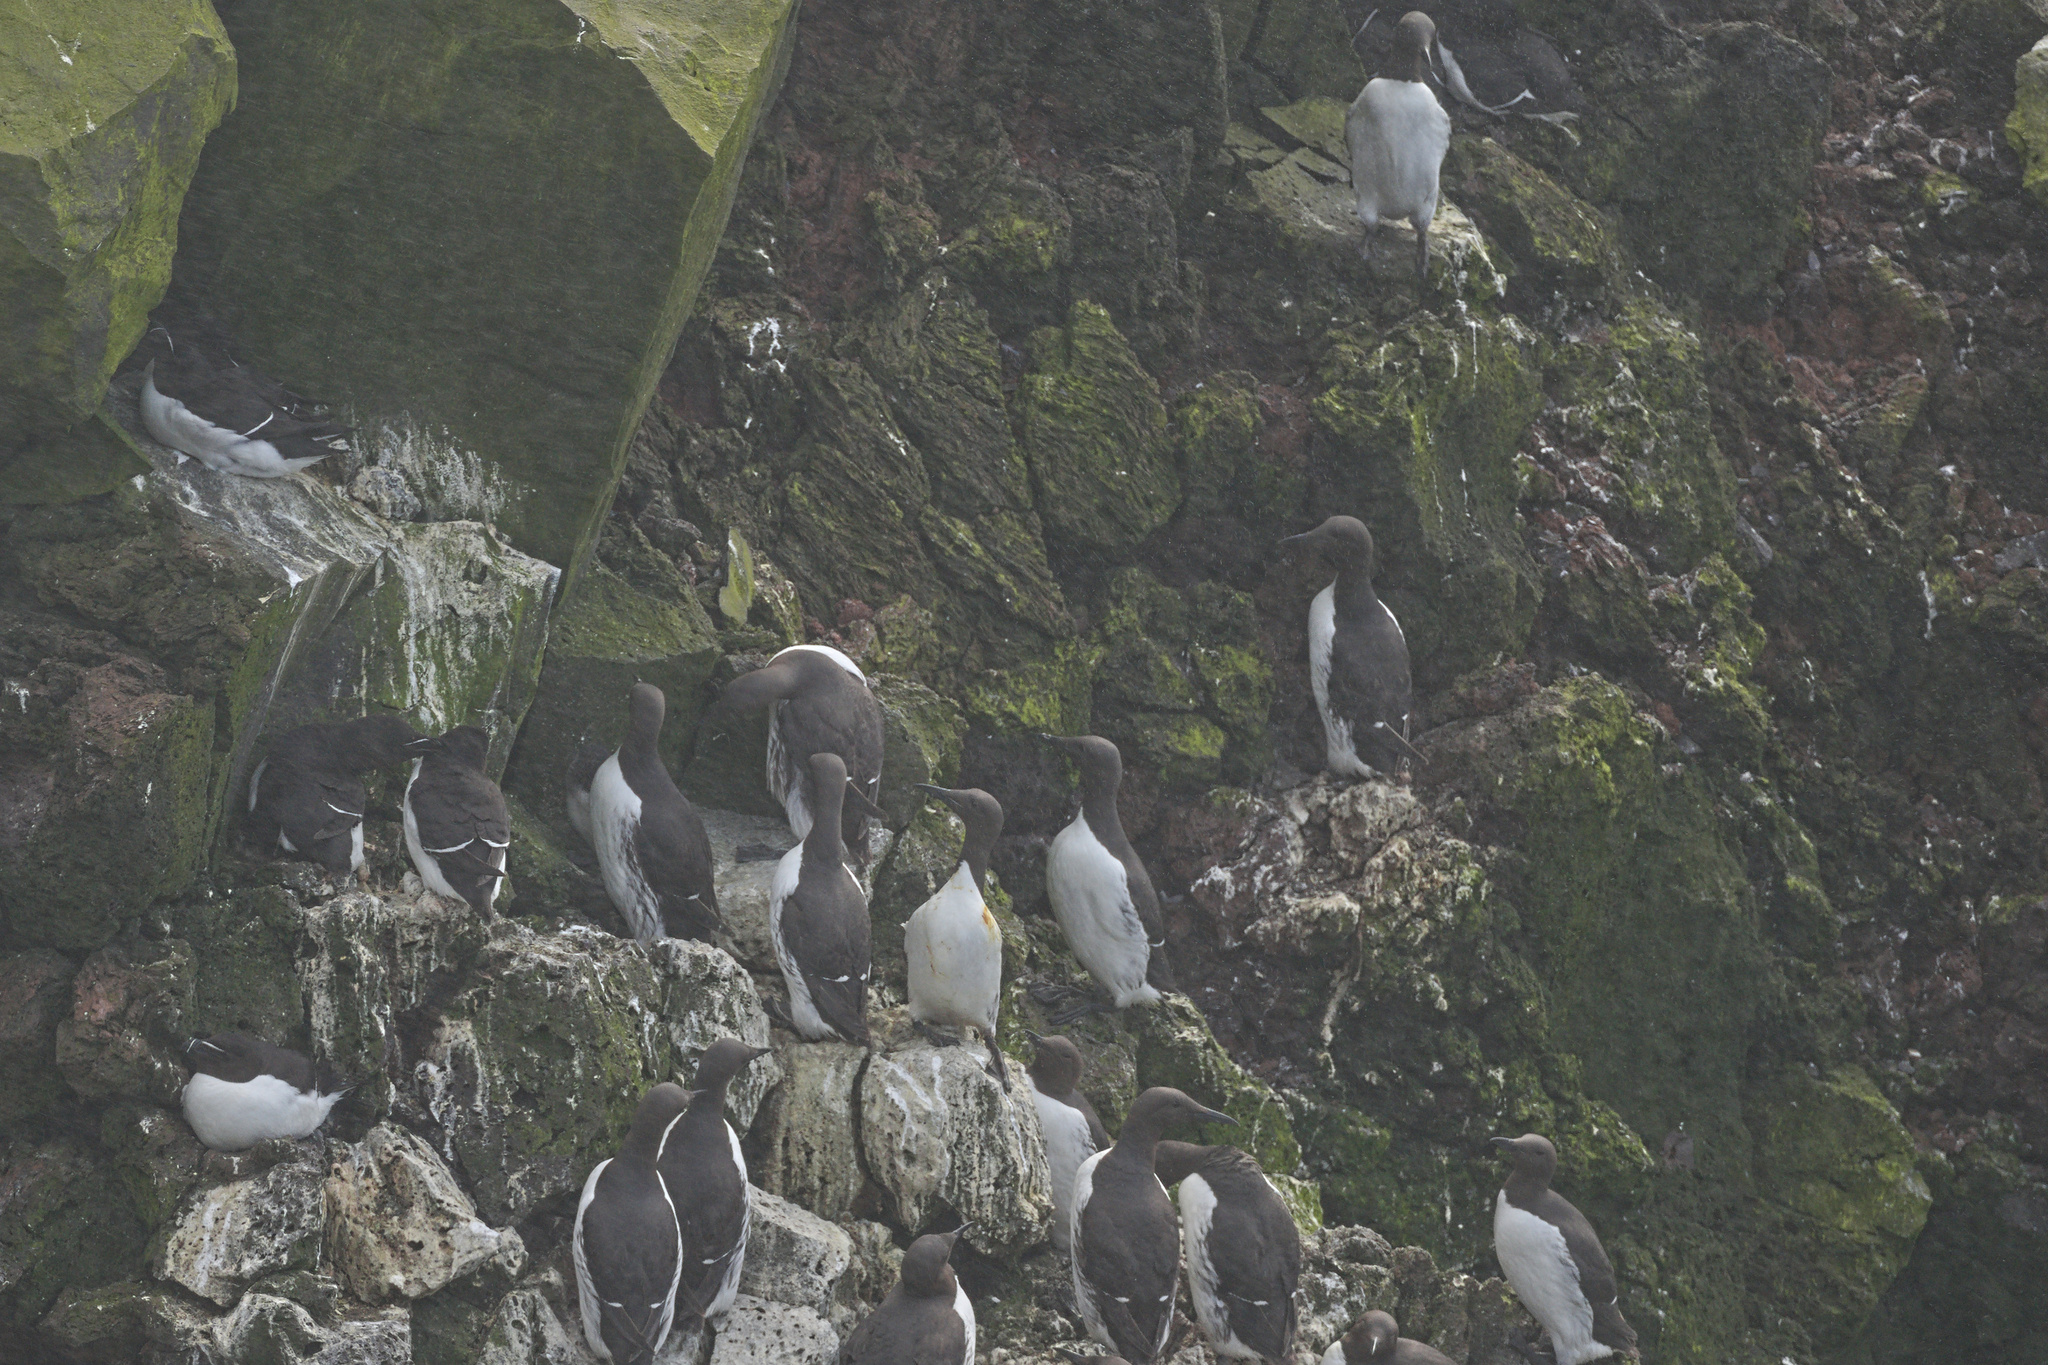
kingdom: Animalia
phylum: Chordata
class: Aves
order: Charadriiformes
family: Alcidae
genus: Uria
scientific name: Uria aalge
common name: Common murre
